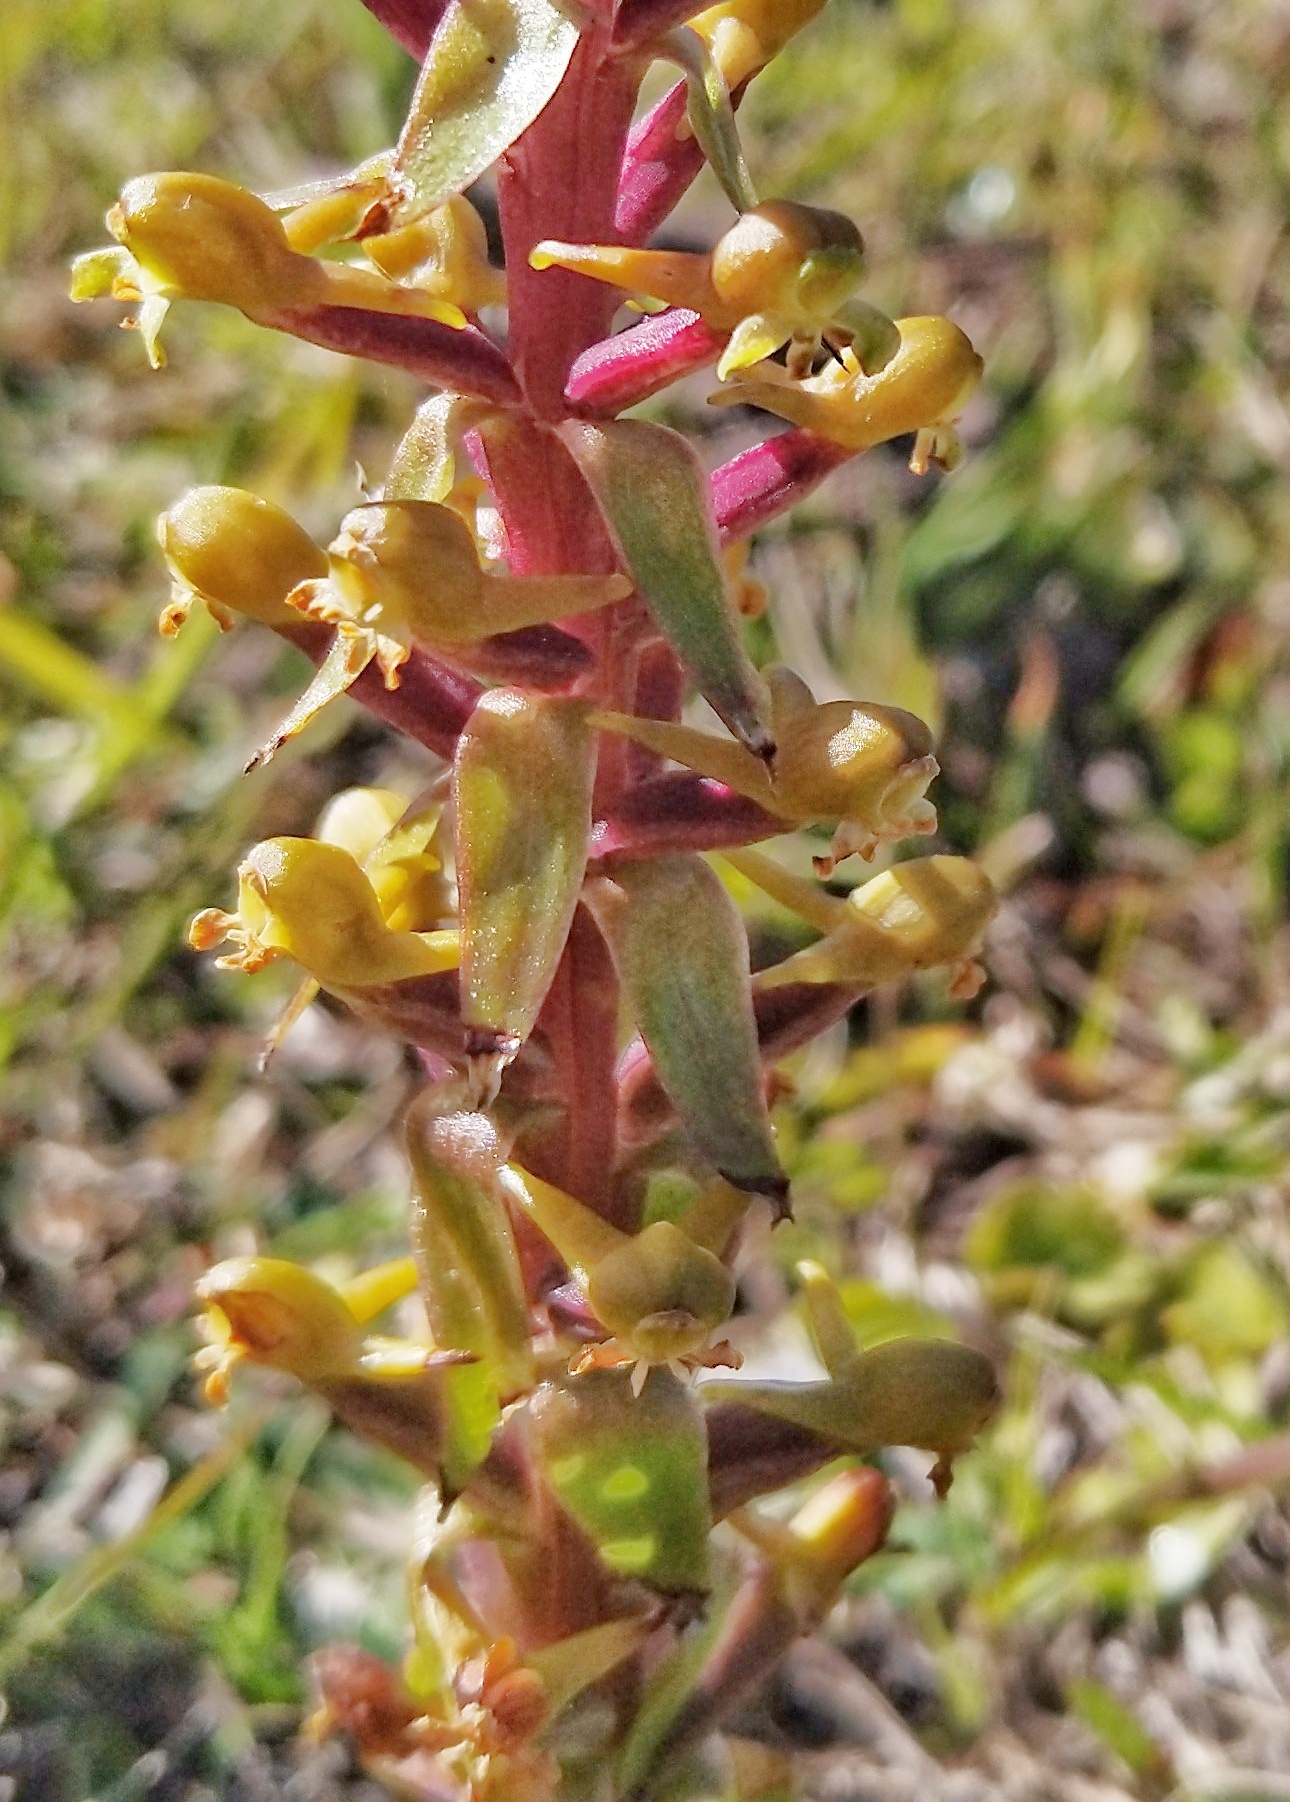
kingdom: Plantae
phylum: Tracheophyta
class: Liliopsida
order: Asparagales
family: Orchidaceae
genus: Satyrium
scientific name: Satyrium parviflorum
